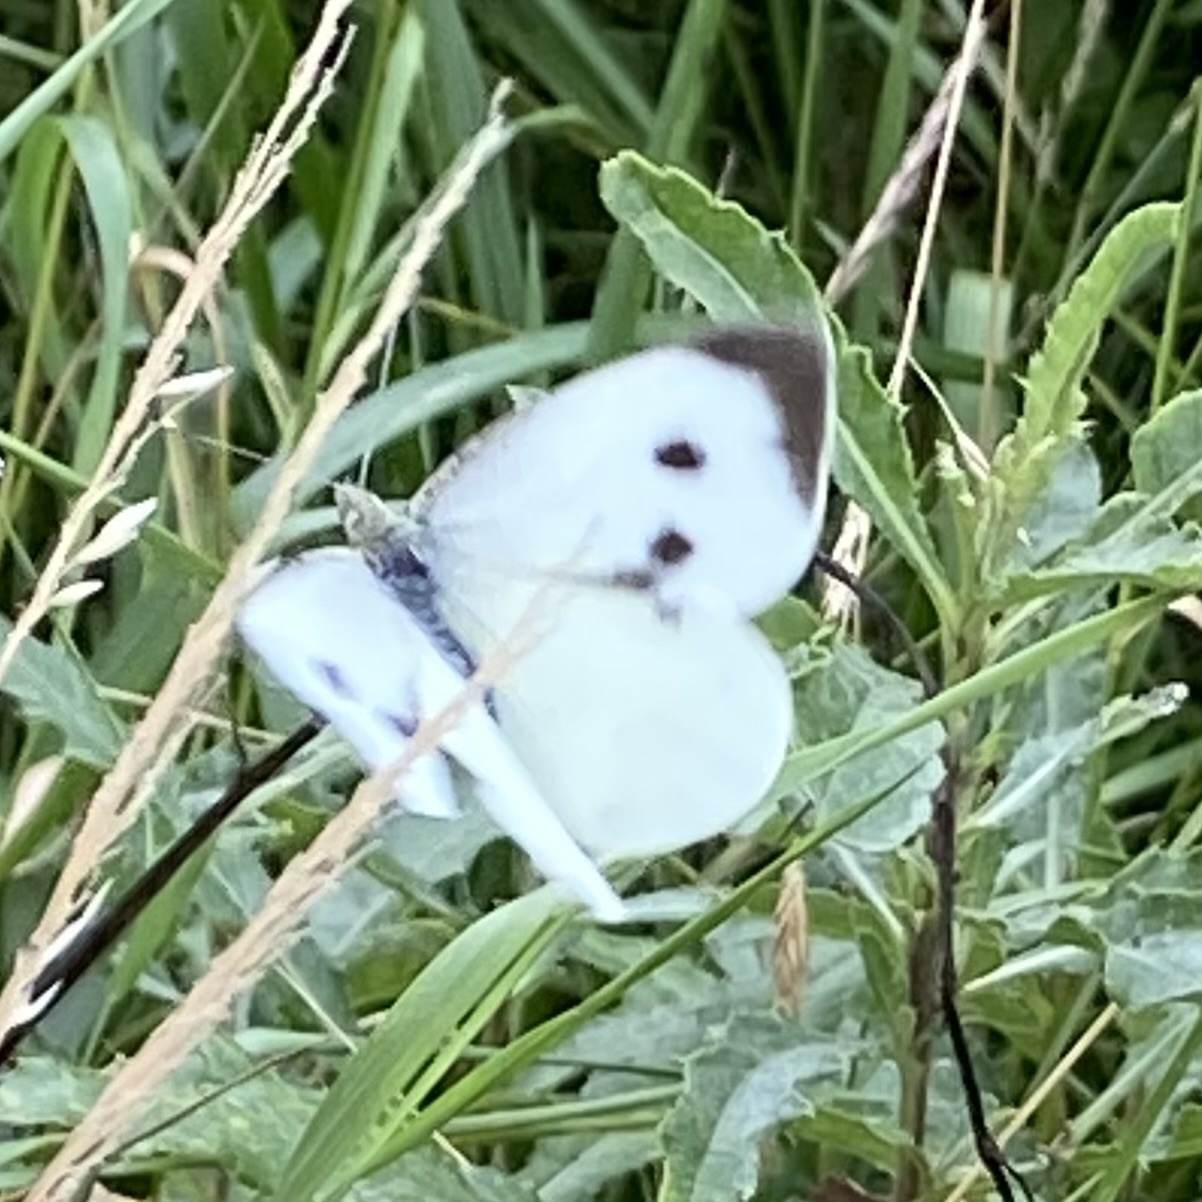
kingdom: Animalia
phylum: Arthropoda
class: Insecta
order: Lepidoptera
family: Pieridae
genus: Pieris
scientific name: Pieris brassicae
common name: Large white
